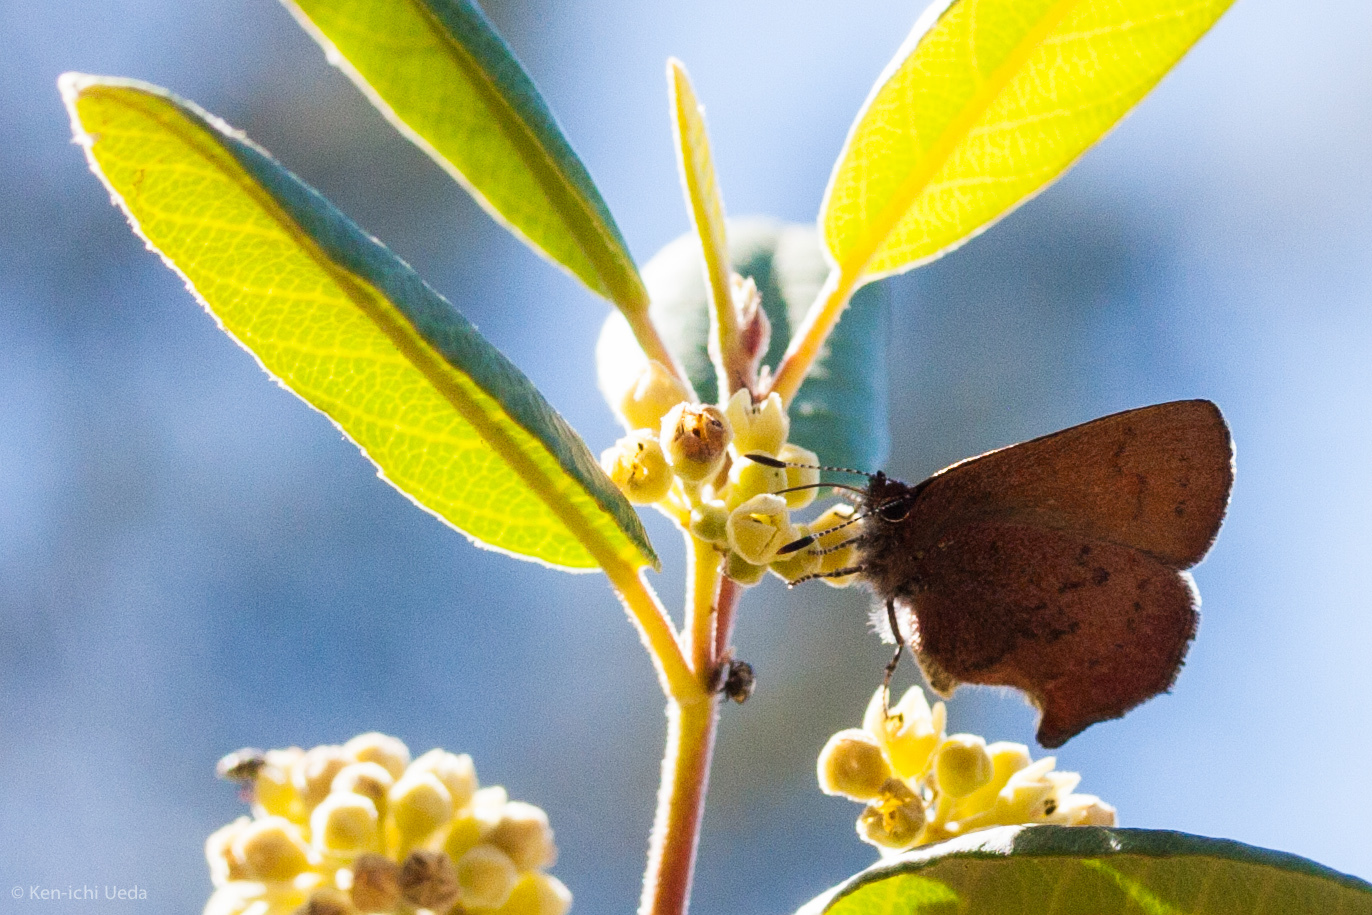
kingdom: Animalia
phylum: Arthropoda
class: Insecta
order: Lepidoptera
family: Lycaenidae
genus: Incisalia
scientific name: Incisalia irioides
